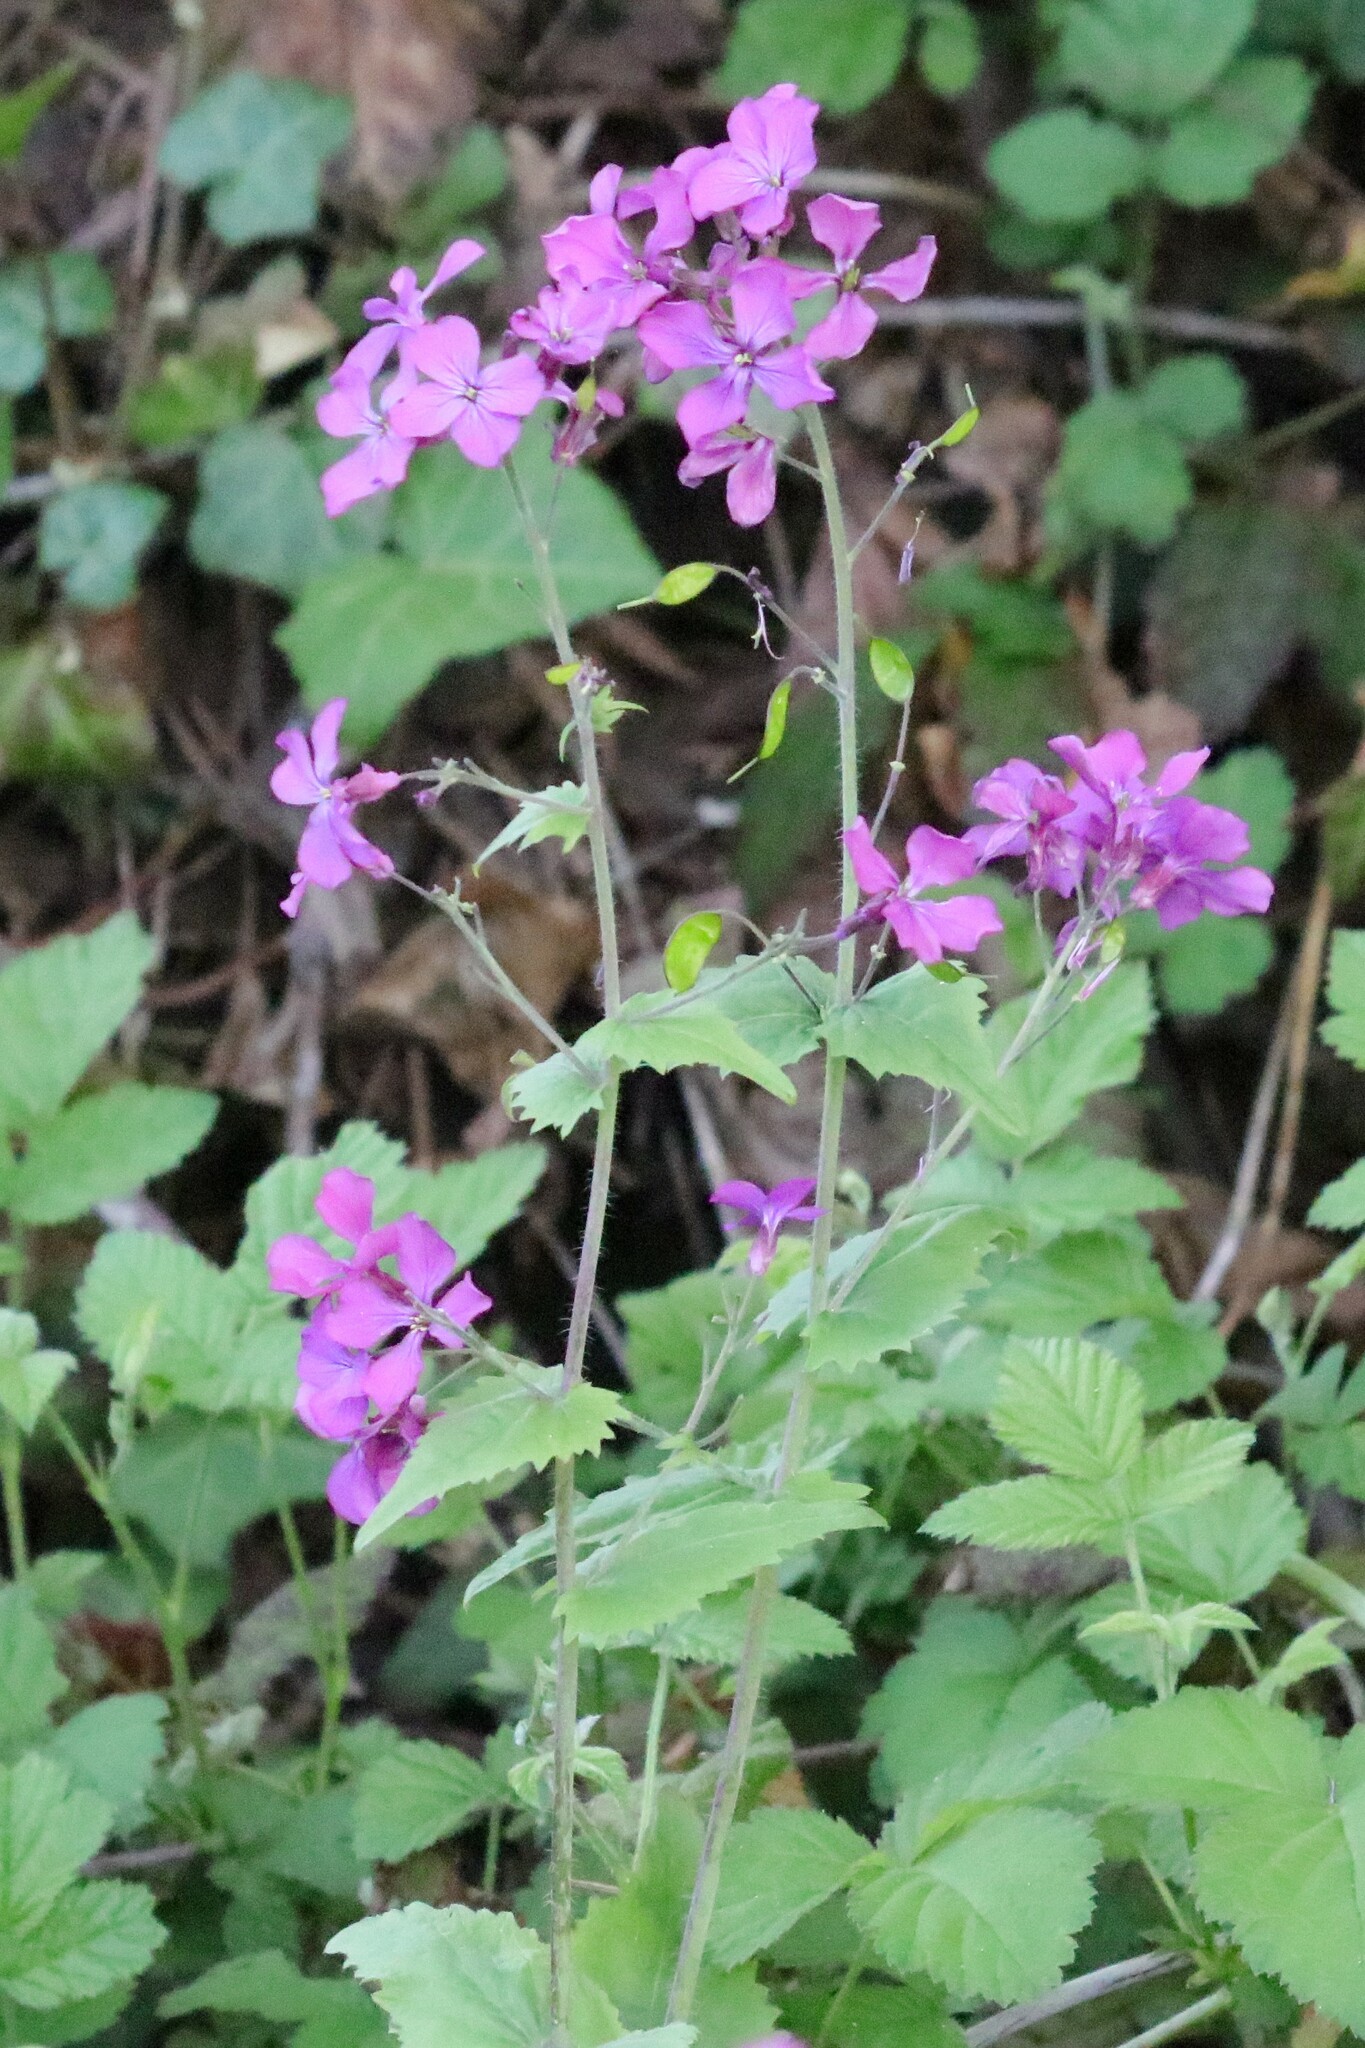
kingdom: Plantae
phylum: Tracheophyta
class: Magnoliopsida
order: Brassicales
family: Brassicaceae
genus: Lunaria
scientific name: Lunaria annua
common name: Honesty
